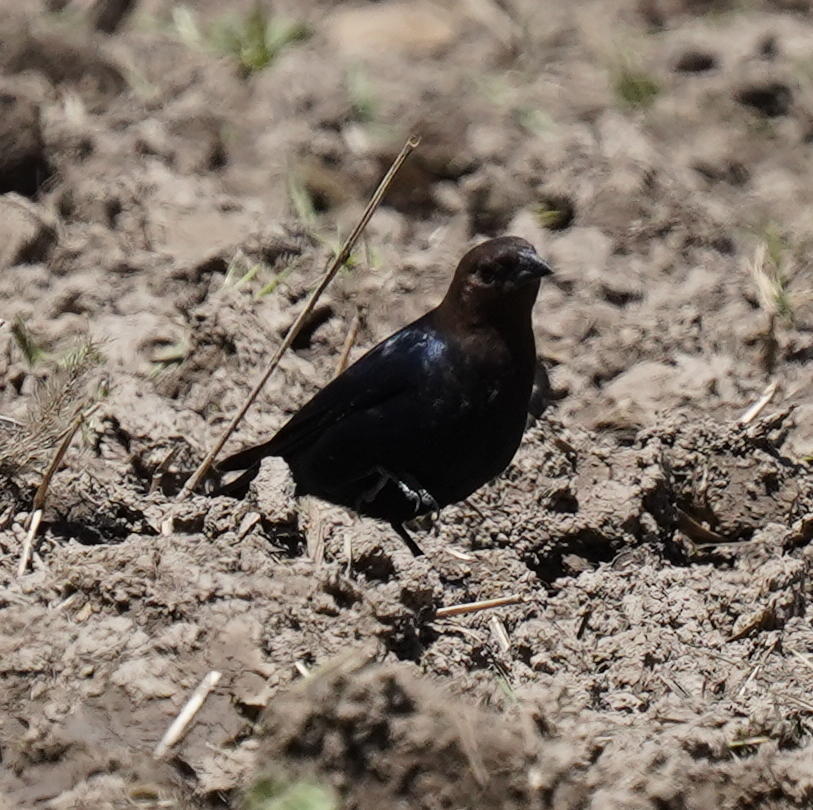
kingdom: Animalia
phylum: Chordata
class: Aves
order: Passeriformes
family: Icteridae
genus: Molothrus
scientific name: Molothrus ater
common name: Brown-headed cowbird
